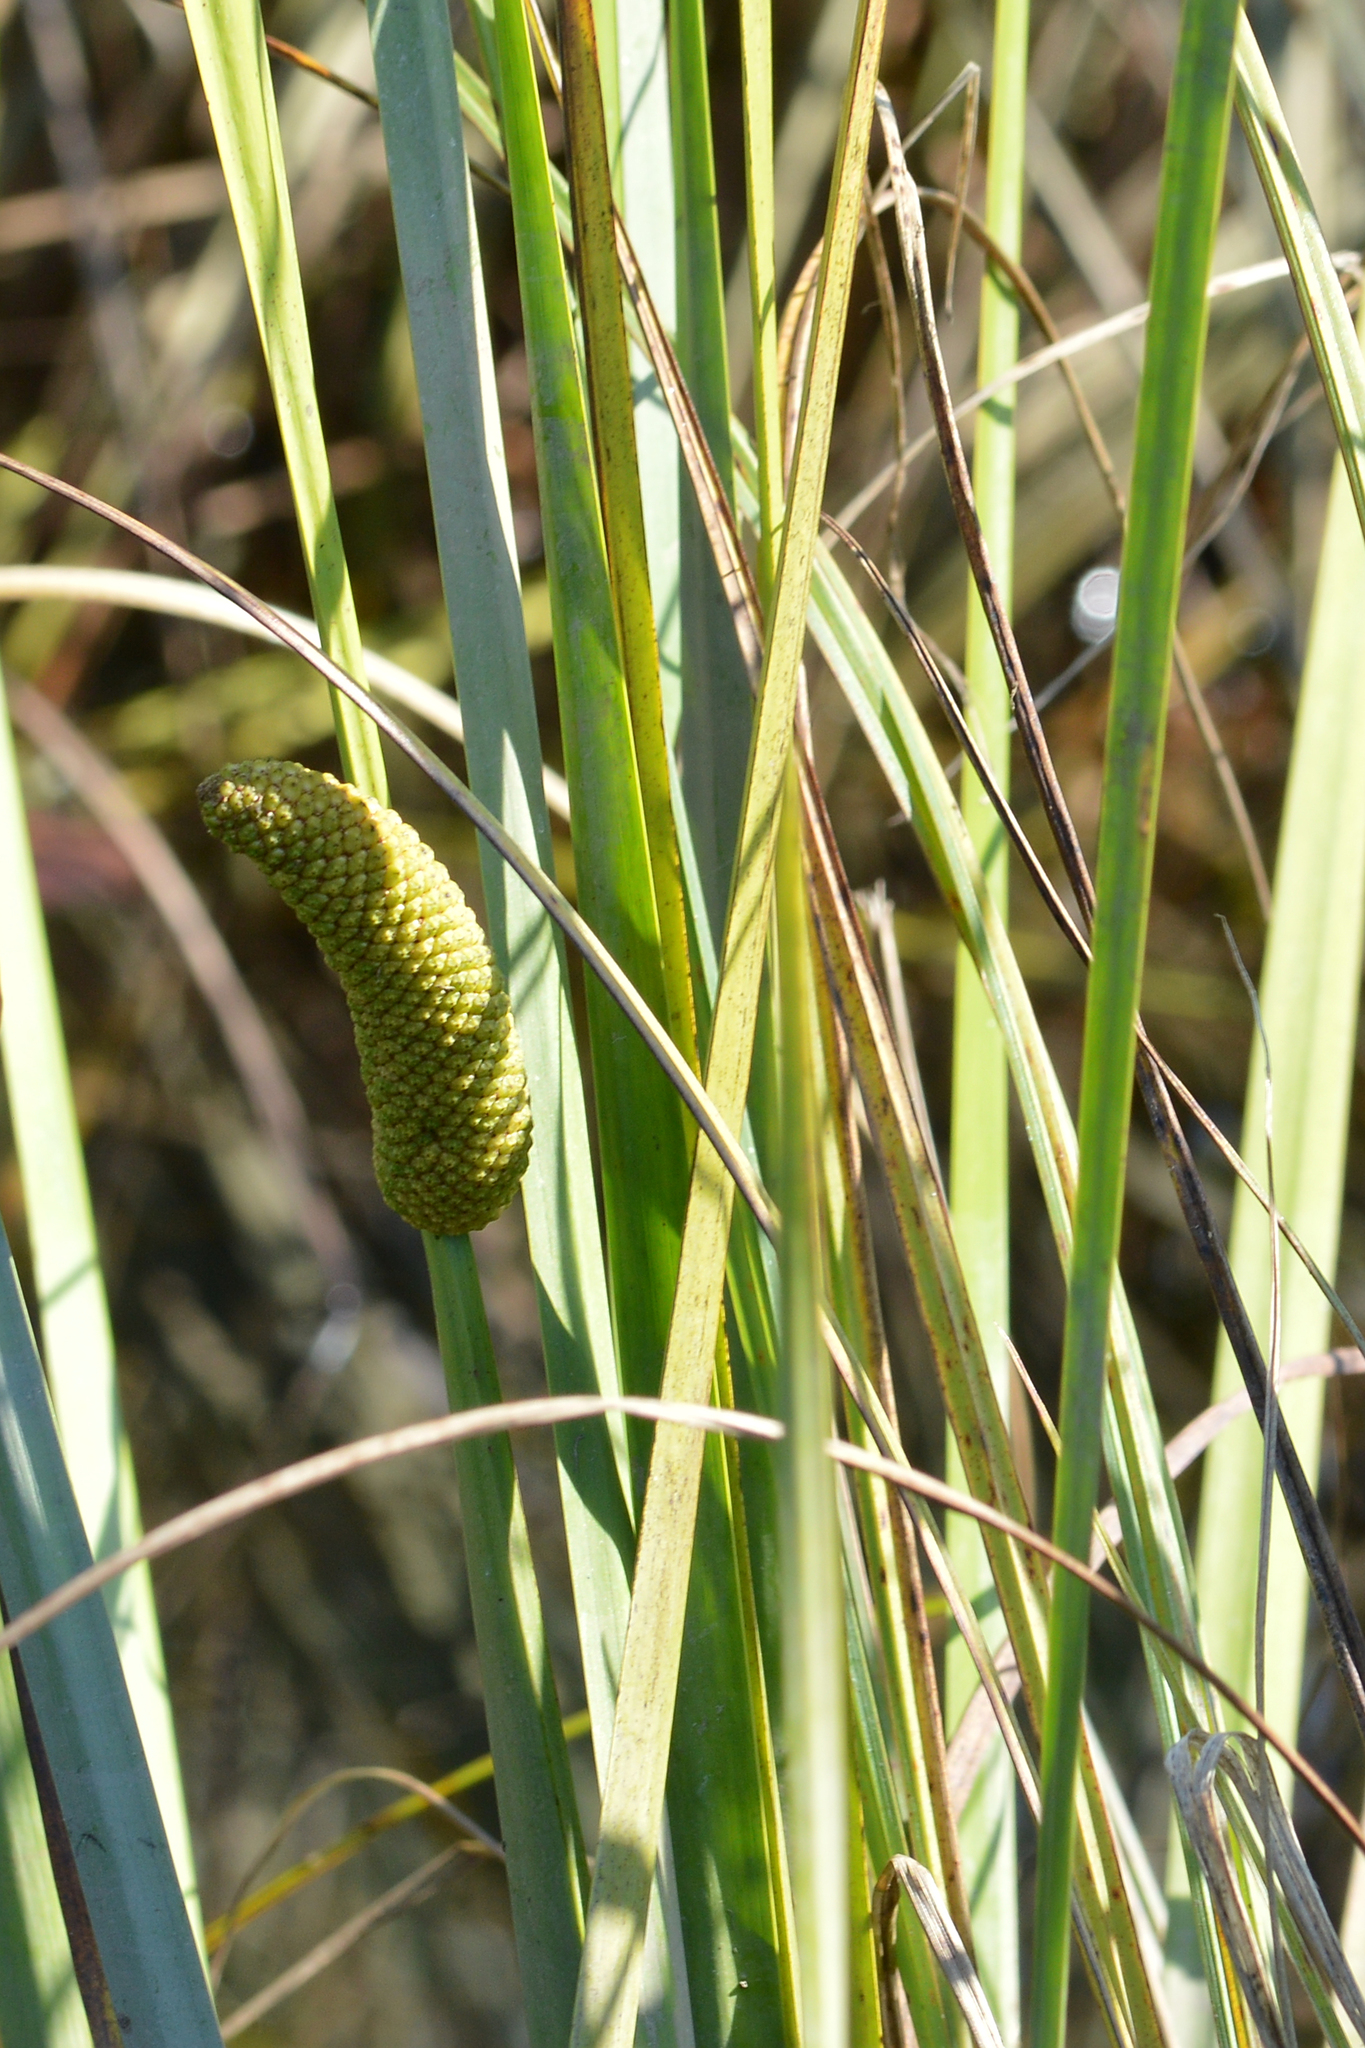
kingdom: Plantae
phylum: Tracheophyta
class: Liliopsida
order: Acorales
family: Acoraceae
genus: Acorus
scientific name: Acorus calamus
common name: Sweet-flag
